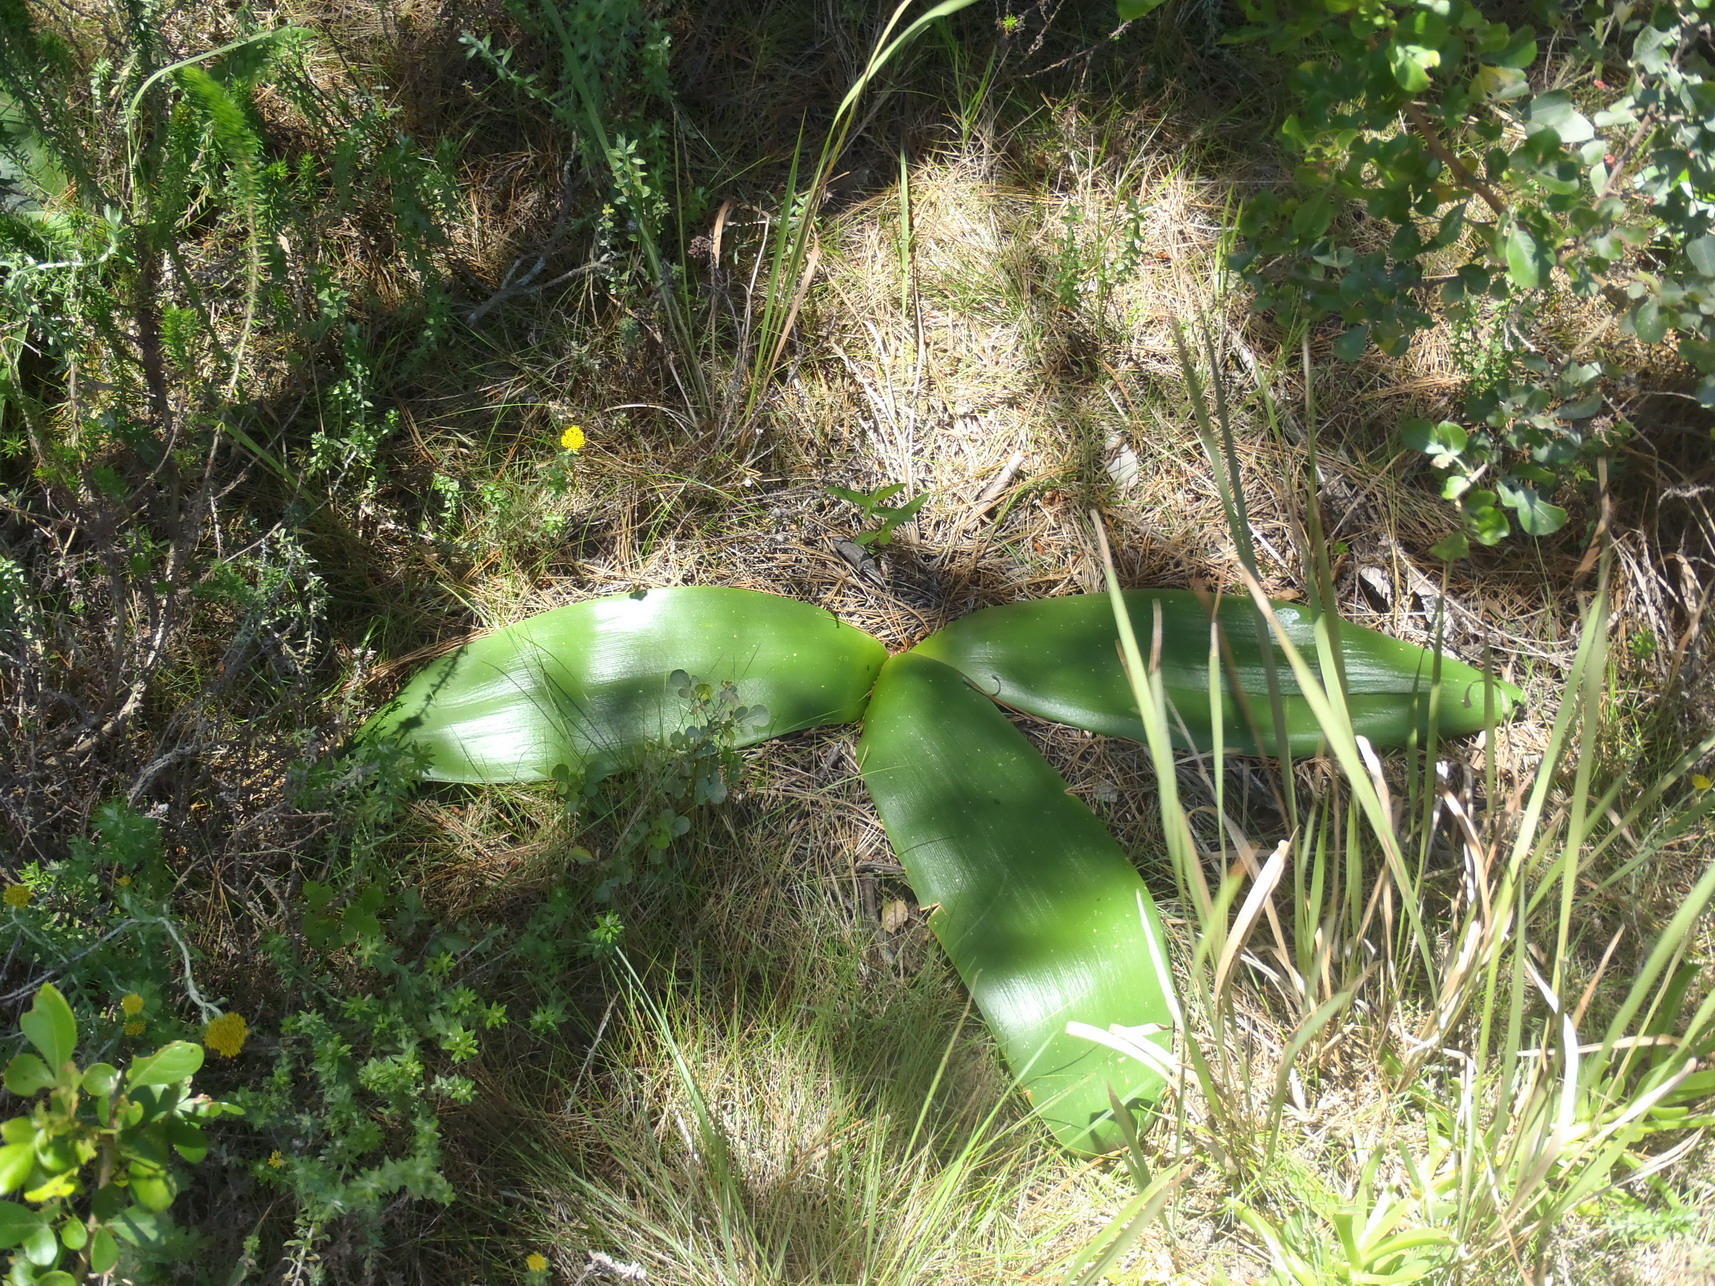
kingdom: Plantae
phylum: Tracheophyta
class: Liliopsida
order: Asparagales
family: Amaryllidaceae
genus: Brunsvigia
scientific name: Brunsvigia orientalis
